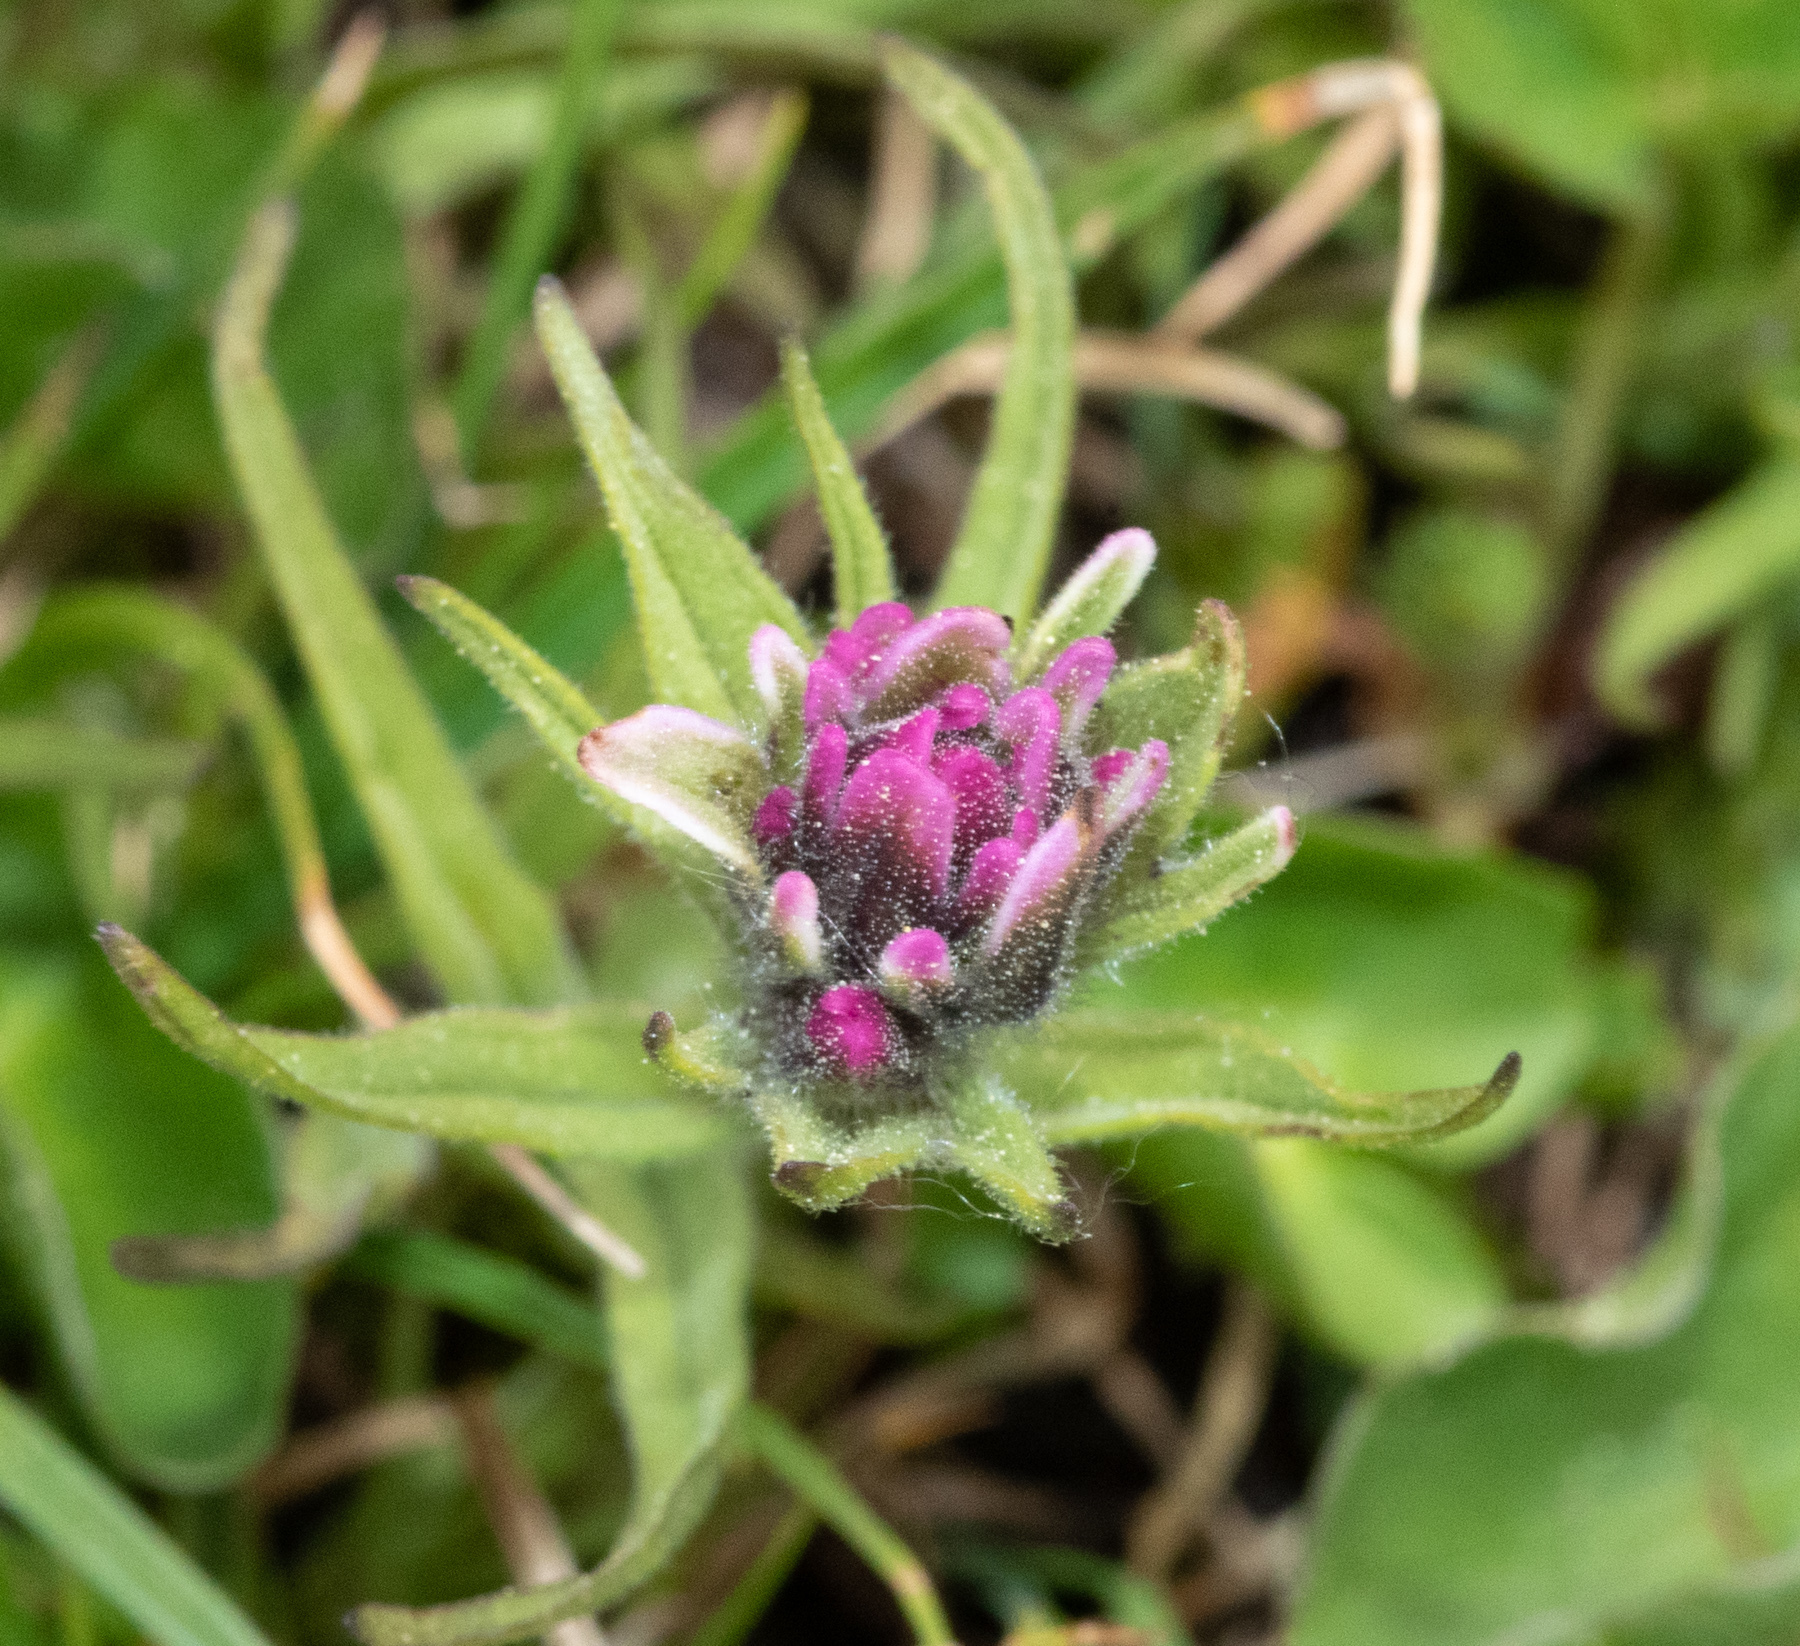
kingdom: Plantae
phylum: Tracheophyta
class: Magnoliopsida
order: Lamiales
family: Orobanchaceae
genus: Castilleja
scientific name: Castilleja lemmonii
